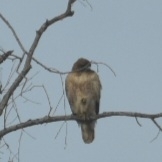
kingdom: Animalia
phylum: Chordata
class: Aves
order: Accipitriformes
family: Accipitridae
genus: Buteo
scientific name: Buteo jamaicensis
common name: Red-tailed hawk
